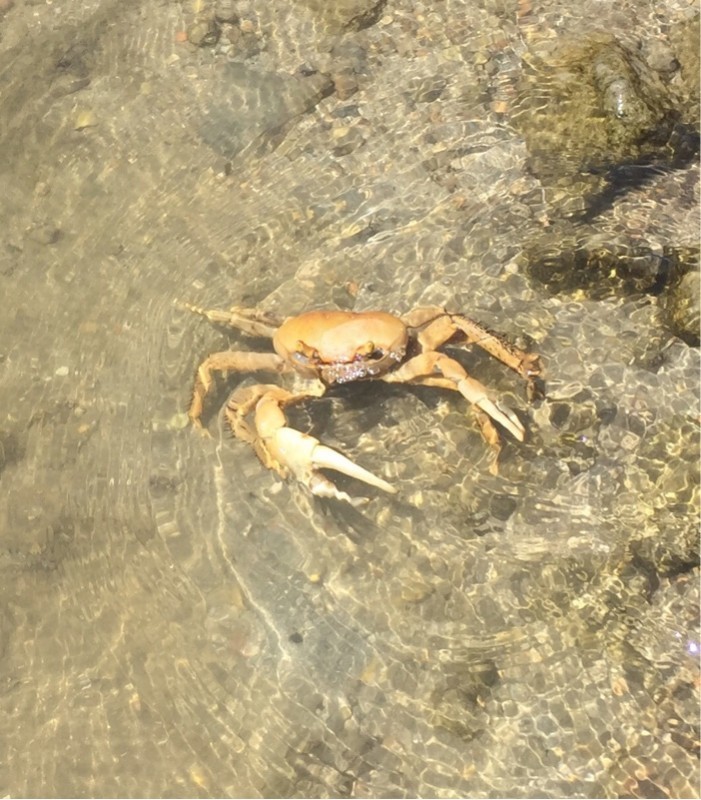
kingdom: Animalia
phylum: Arthropoda
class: Malacostraca
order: Decapoda
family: Gecarcinidae
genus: Cardisoma
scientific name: Cardisoma guanhumi
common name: Great land crab
